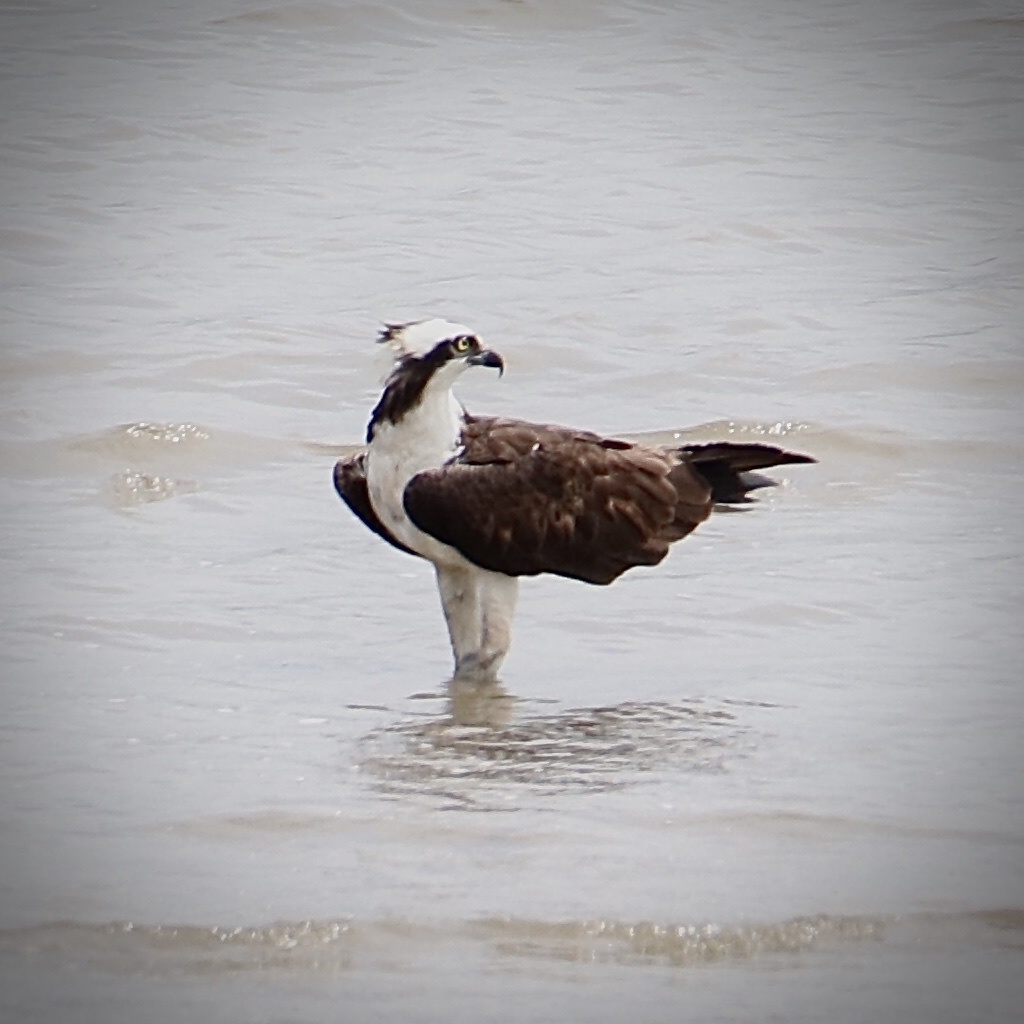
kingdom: Animalia
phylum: Chordata
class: Aves
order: Accipitriformes
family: Pandionidae
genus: Pandion
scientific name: Pandion haliaetus
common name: Osprey
